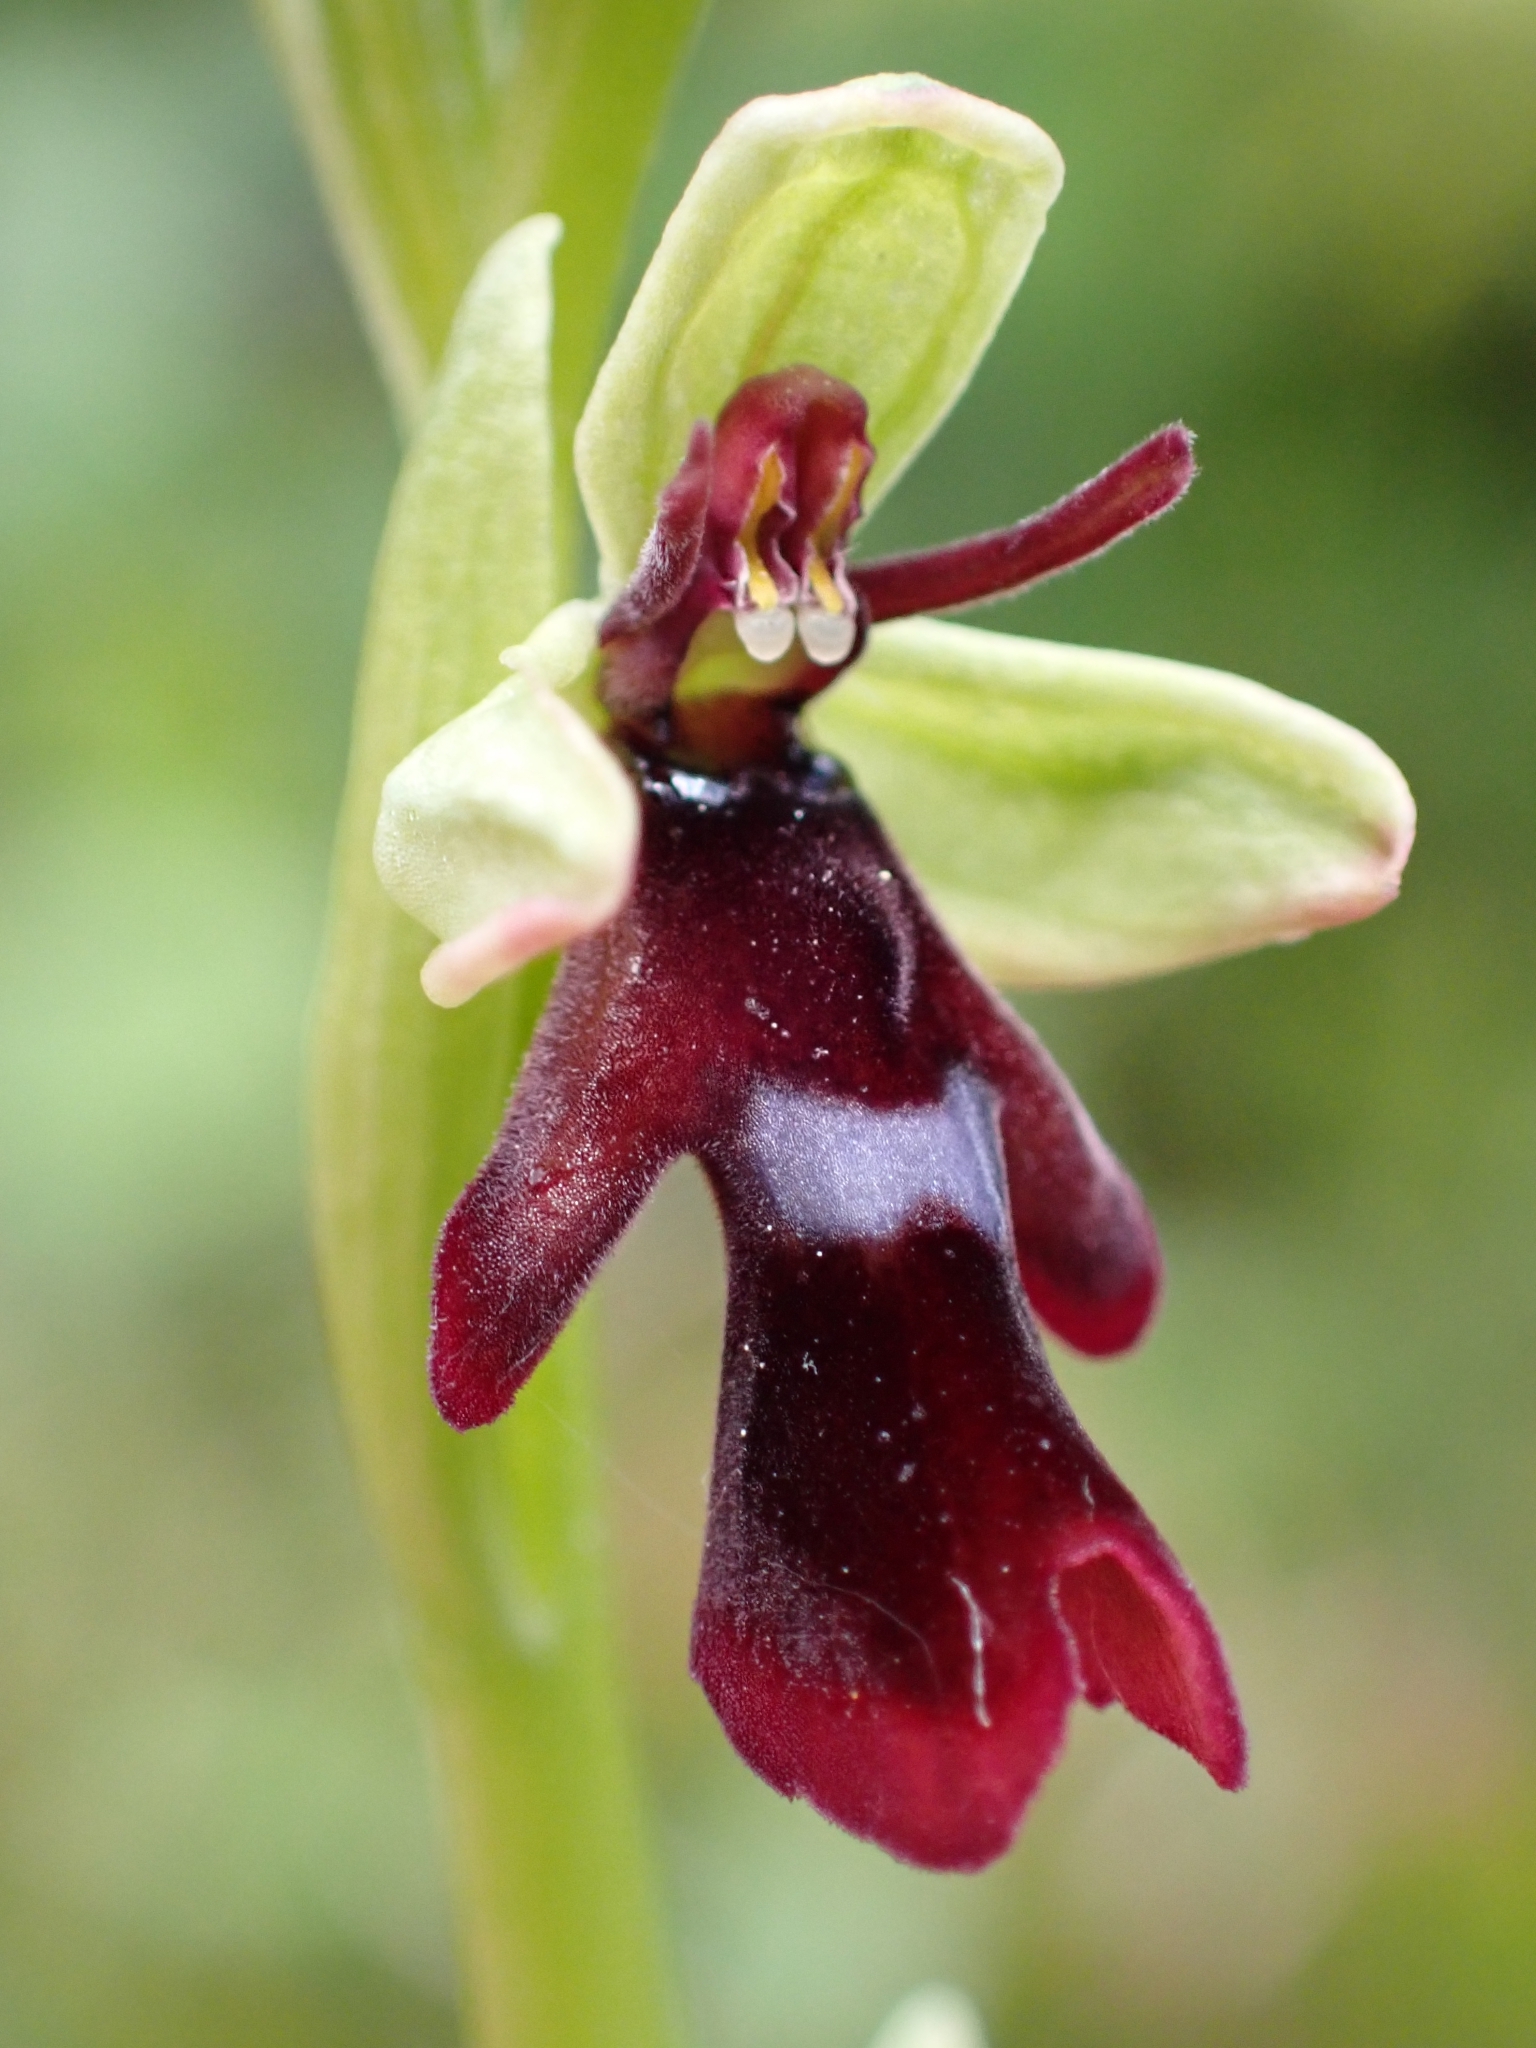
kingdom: Plantae
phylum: Tracheophyta
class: Liliopsida
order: Asparagales
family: Orchidaceae
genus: Ophrys
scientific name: Ophrys insectifera
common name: Fly orchid
